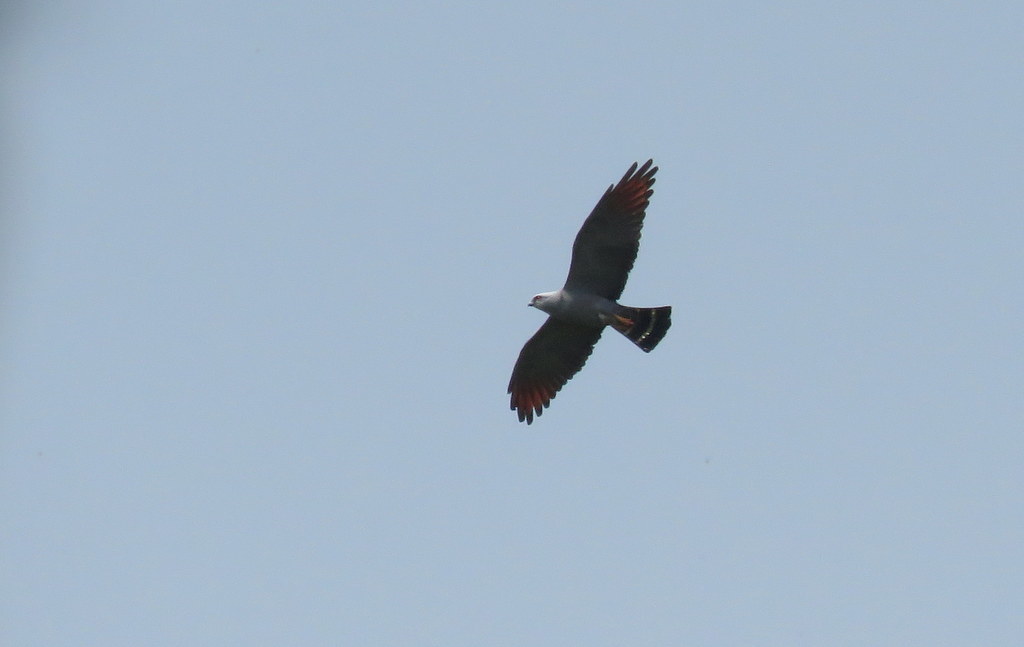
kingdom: Animalia
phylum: Chordata
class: Aves
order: Accipitriformes
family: Accipitridae
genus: Ictinia
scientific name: Ictinia plumbea
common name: Plumbeous kite
